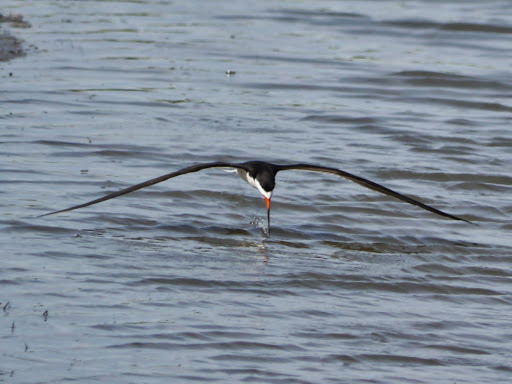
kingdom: Animalia
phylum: Chordata
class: Aves
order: Charadriiformes
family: Laridae
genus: Rynchops
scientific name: Rynchops niger
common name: Black skimmer
